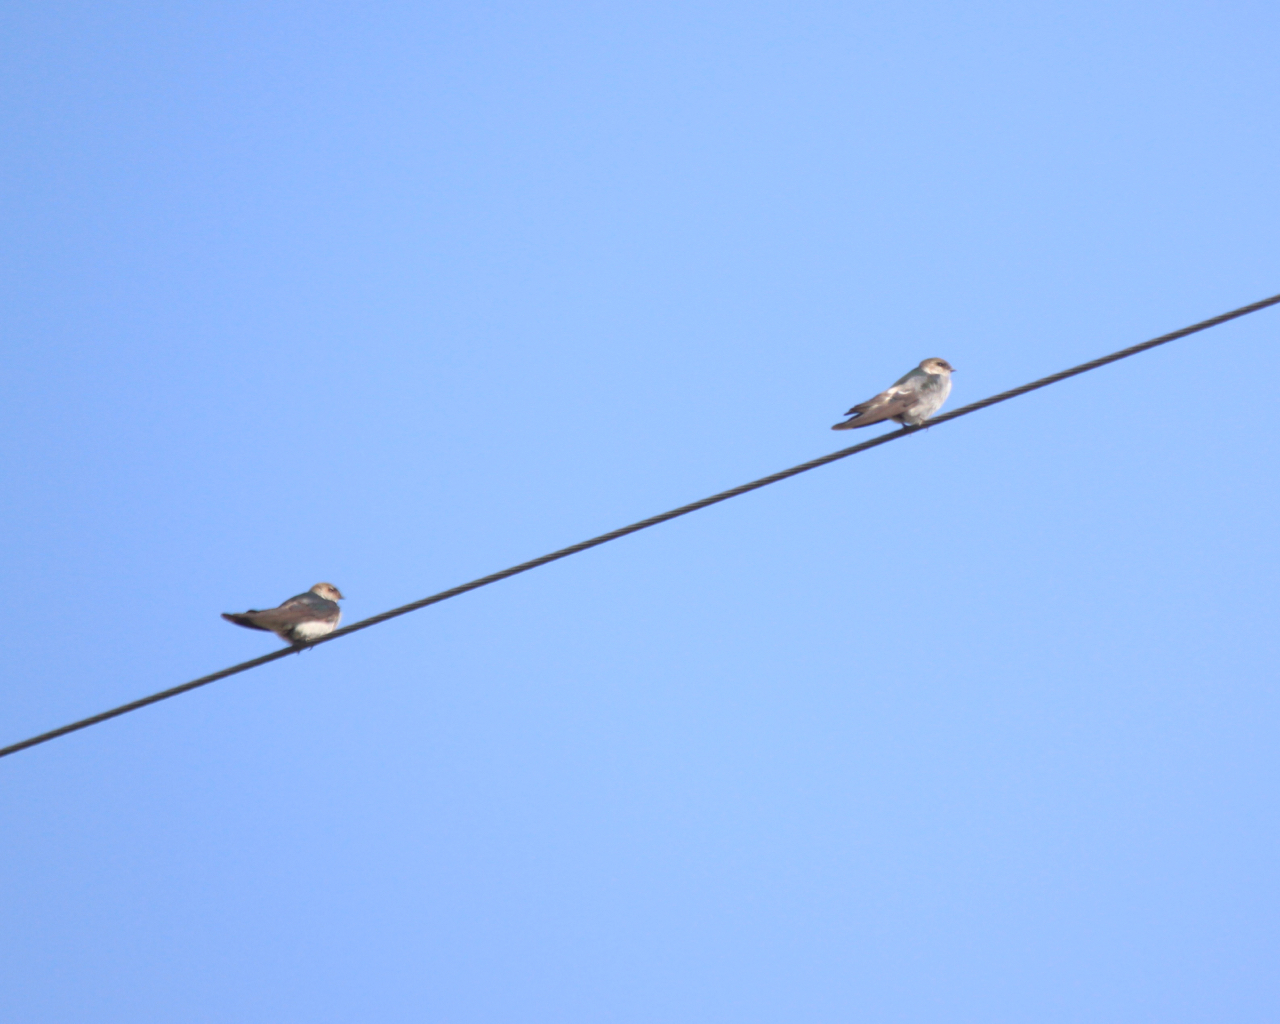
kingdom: Animalia
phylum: Chordata
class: Aves
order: Passeriformes
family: Hirundinidae
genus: Tachycineta
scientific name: Tachycineta thalassina
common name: Violet-green swallow
